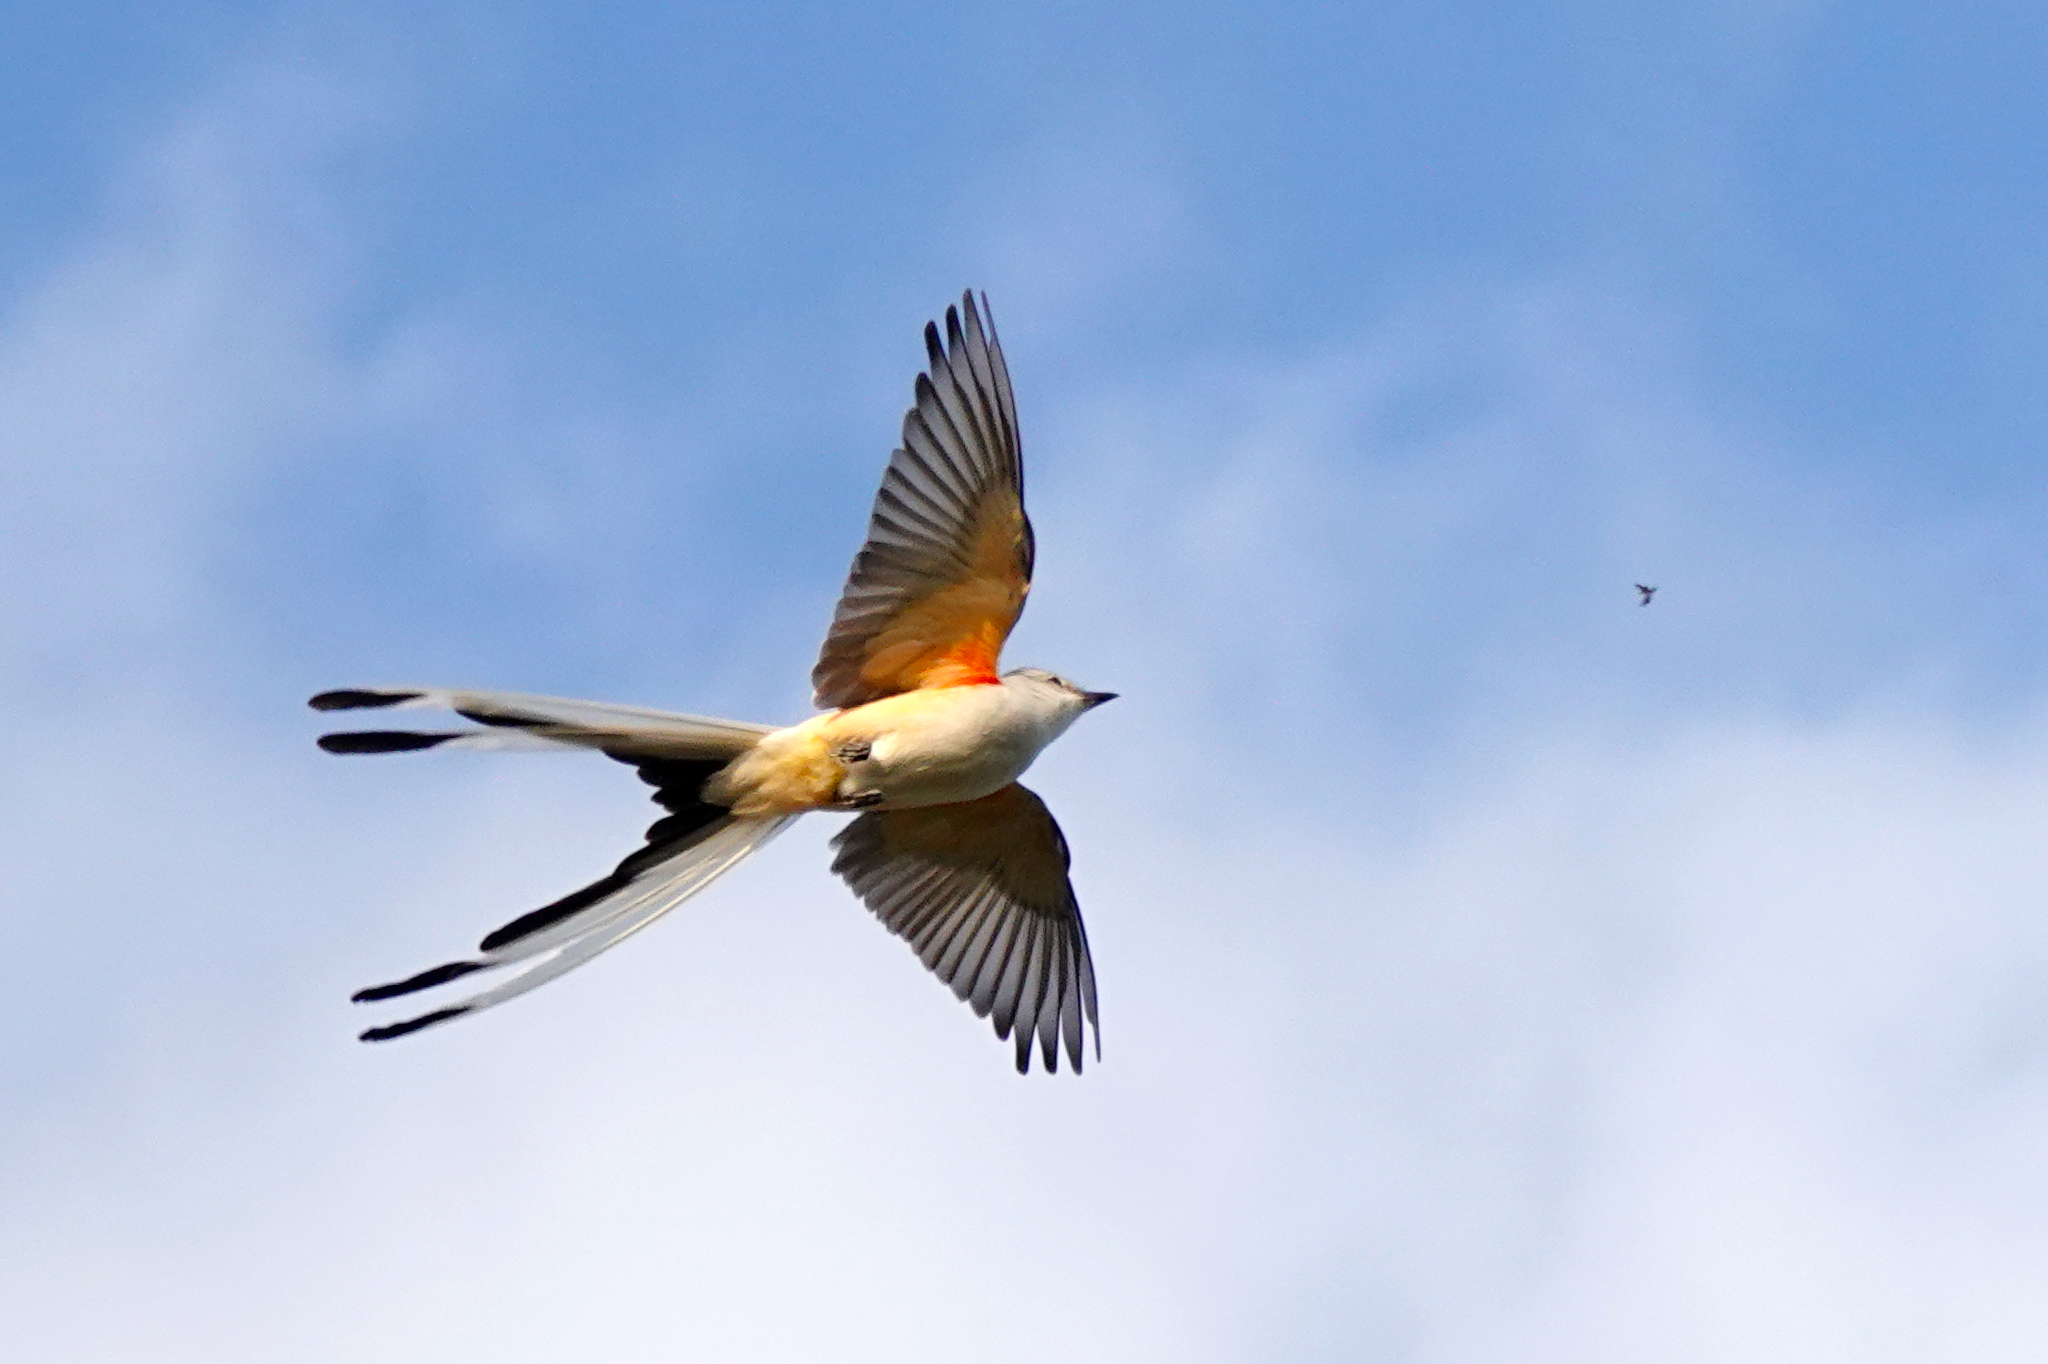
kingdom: Animalia
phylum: Chordata
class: Aves
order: Passeriformes
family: Tyrannidae
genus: Tyrannus
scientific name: Tyrannus forficatus
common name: Scissor-tailed flycatcher
